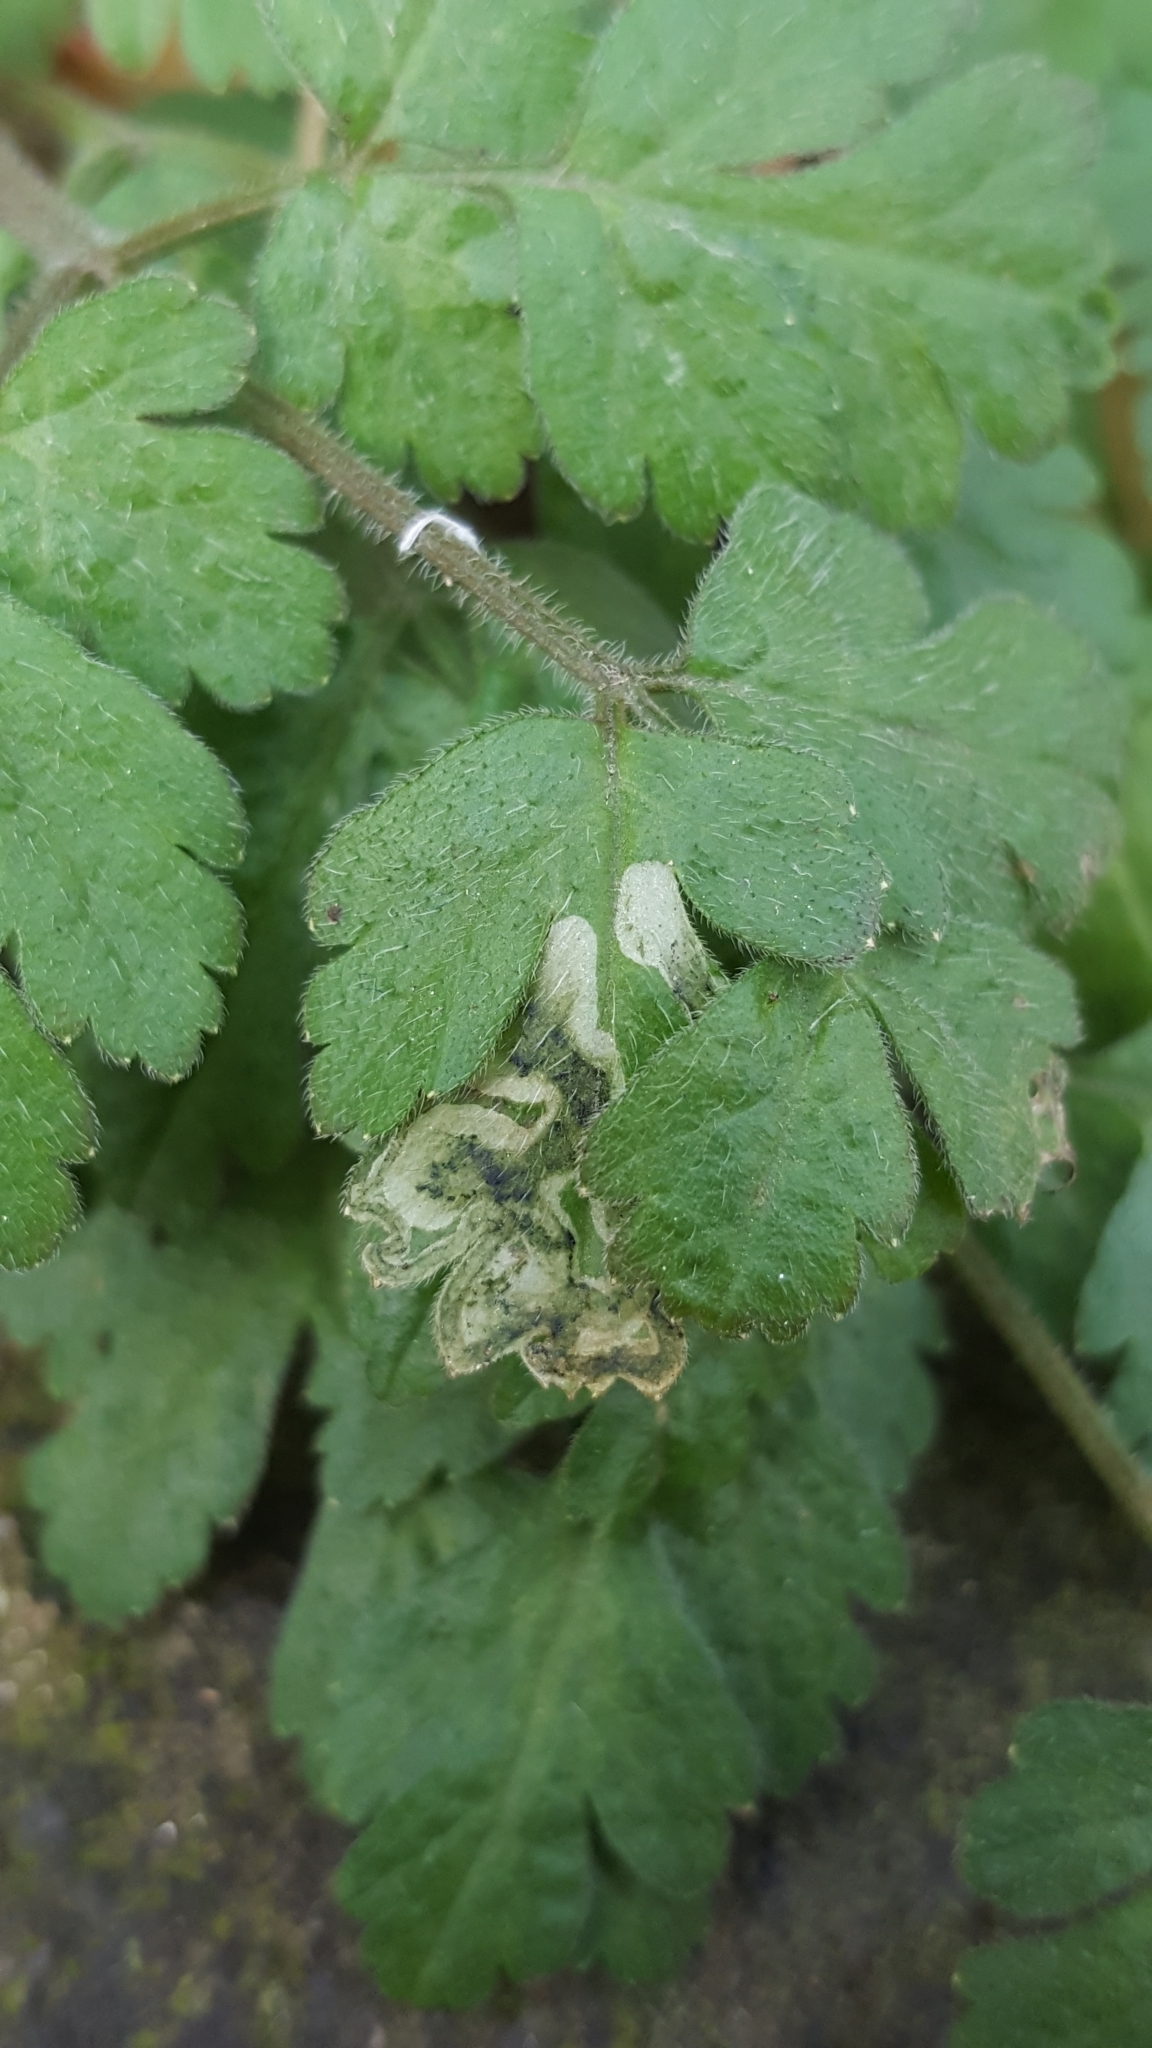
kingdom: Animalia
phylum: Arthropoda
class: Insecta
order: Diptera
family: Agromyzidae
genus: Phytomyza
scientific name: Phytomyza chaerophylli
